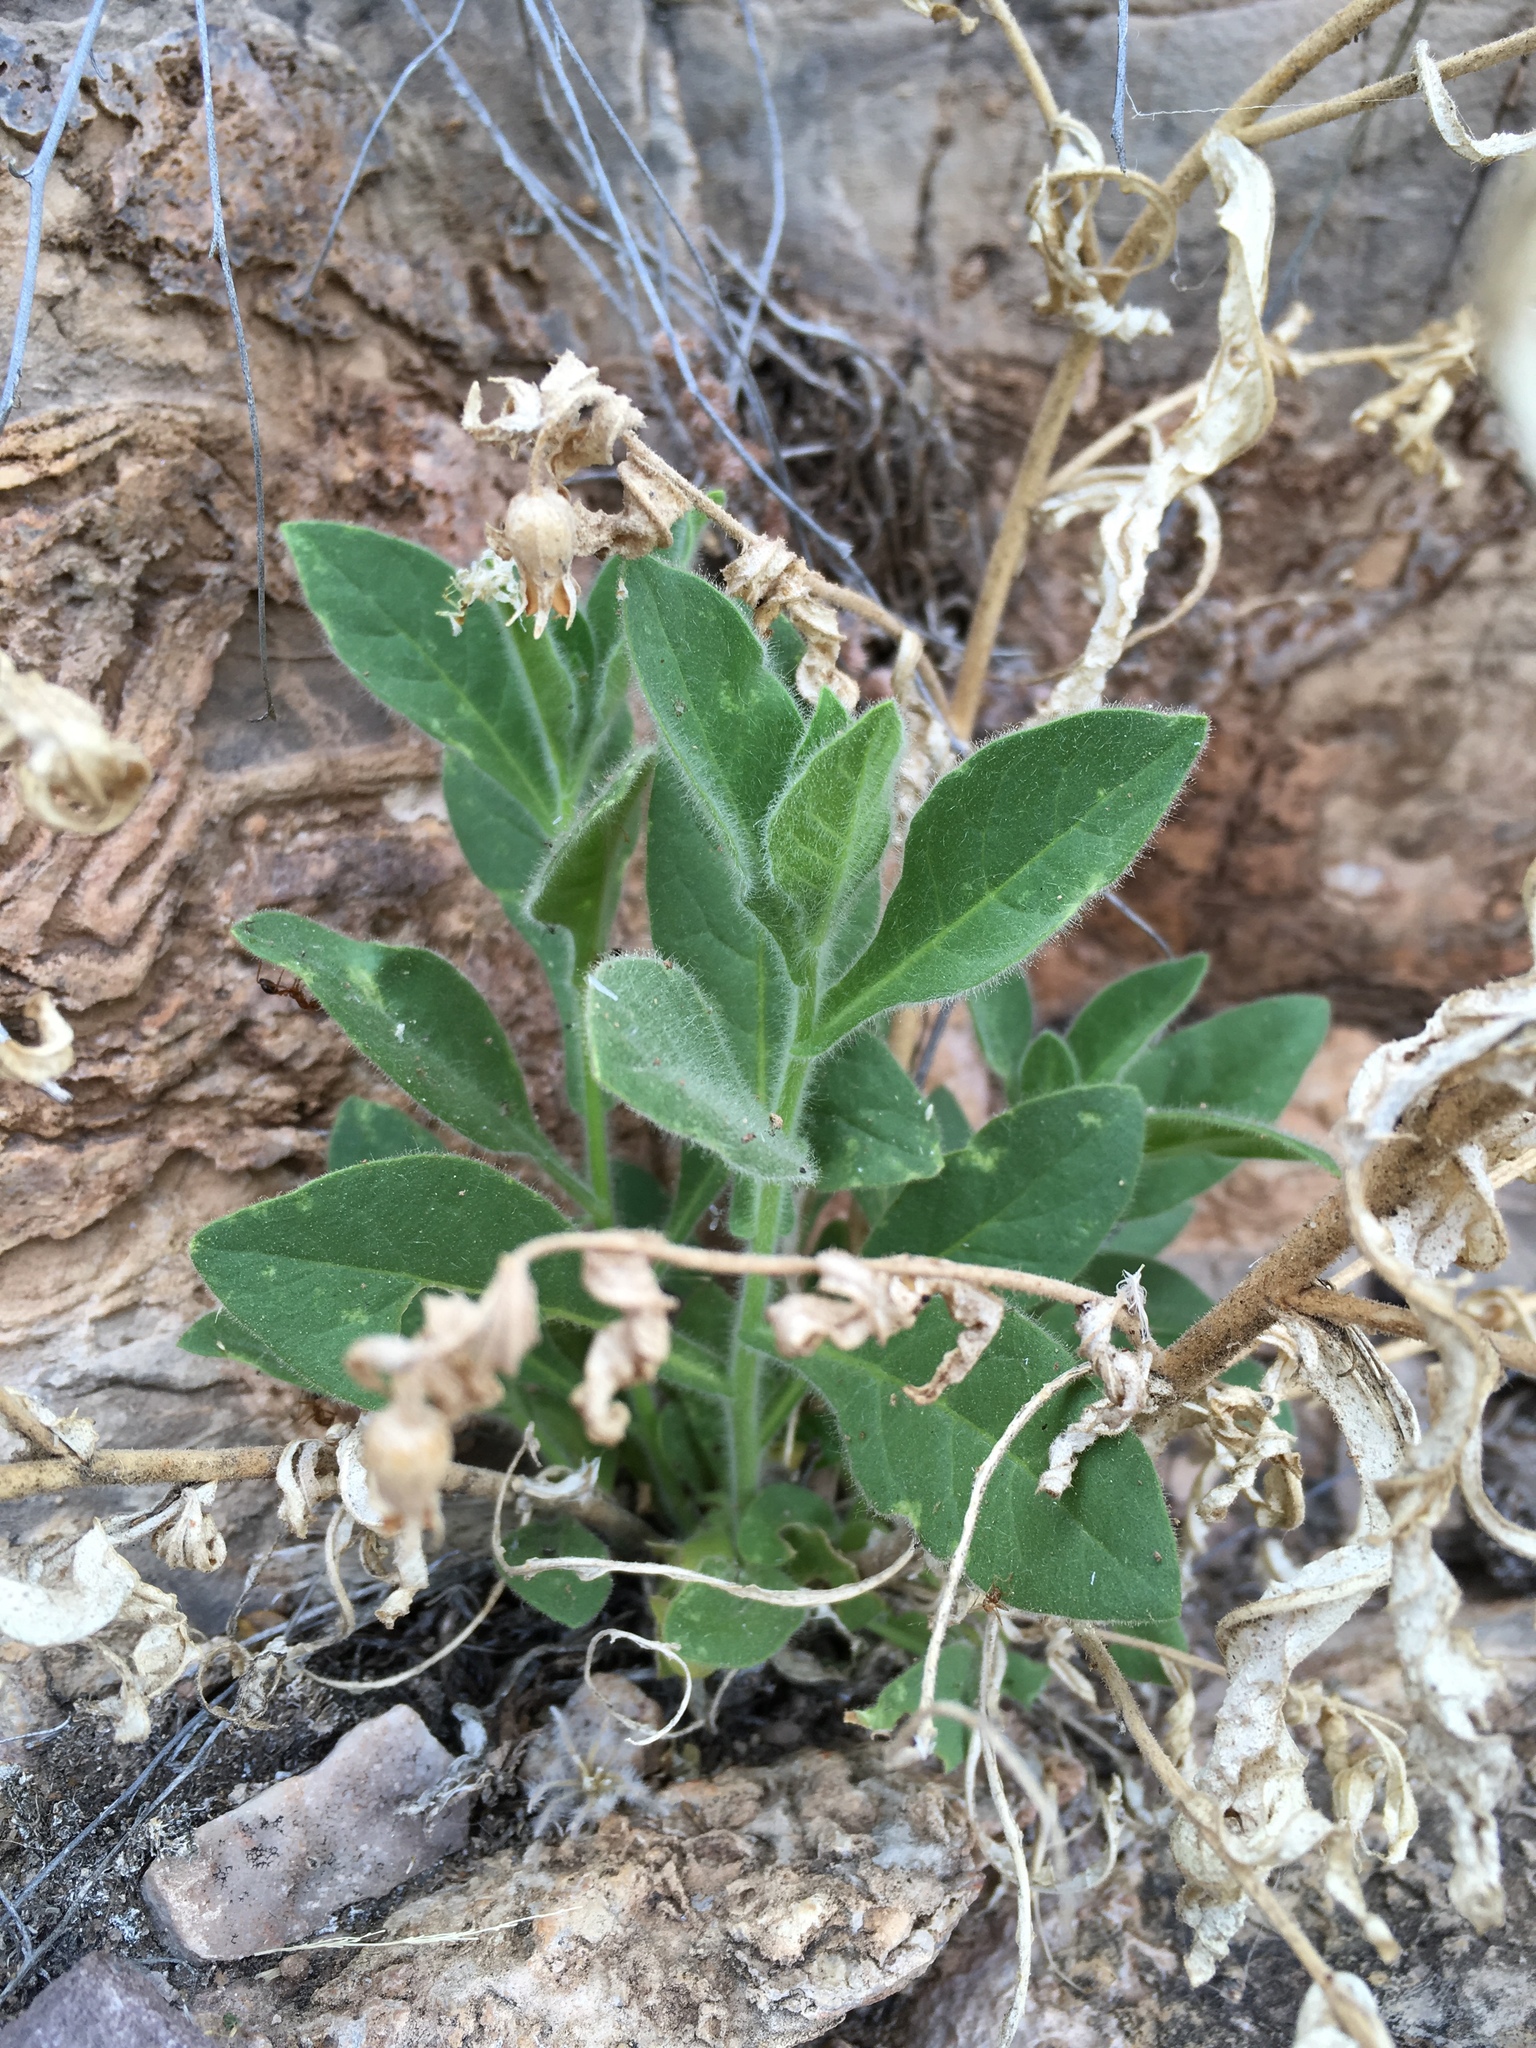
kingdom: Plantae
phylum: Tracheophyta
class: Magnoliopsida
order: Solanales
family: Solanaceae
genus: Nicotiana
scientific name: Nicotiana obtusifolia
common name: Desert tobacco
